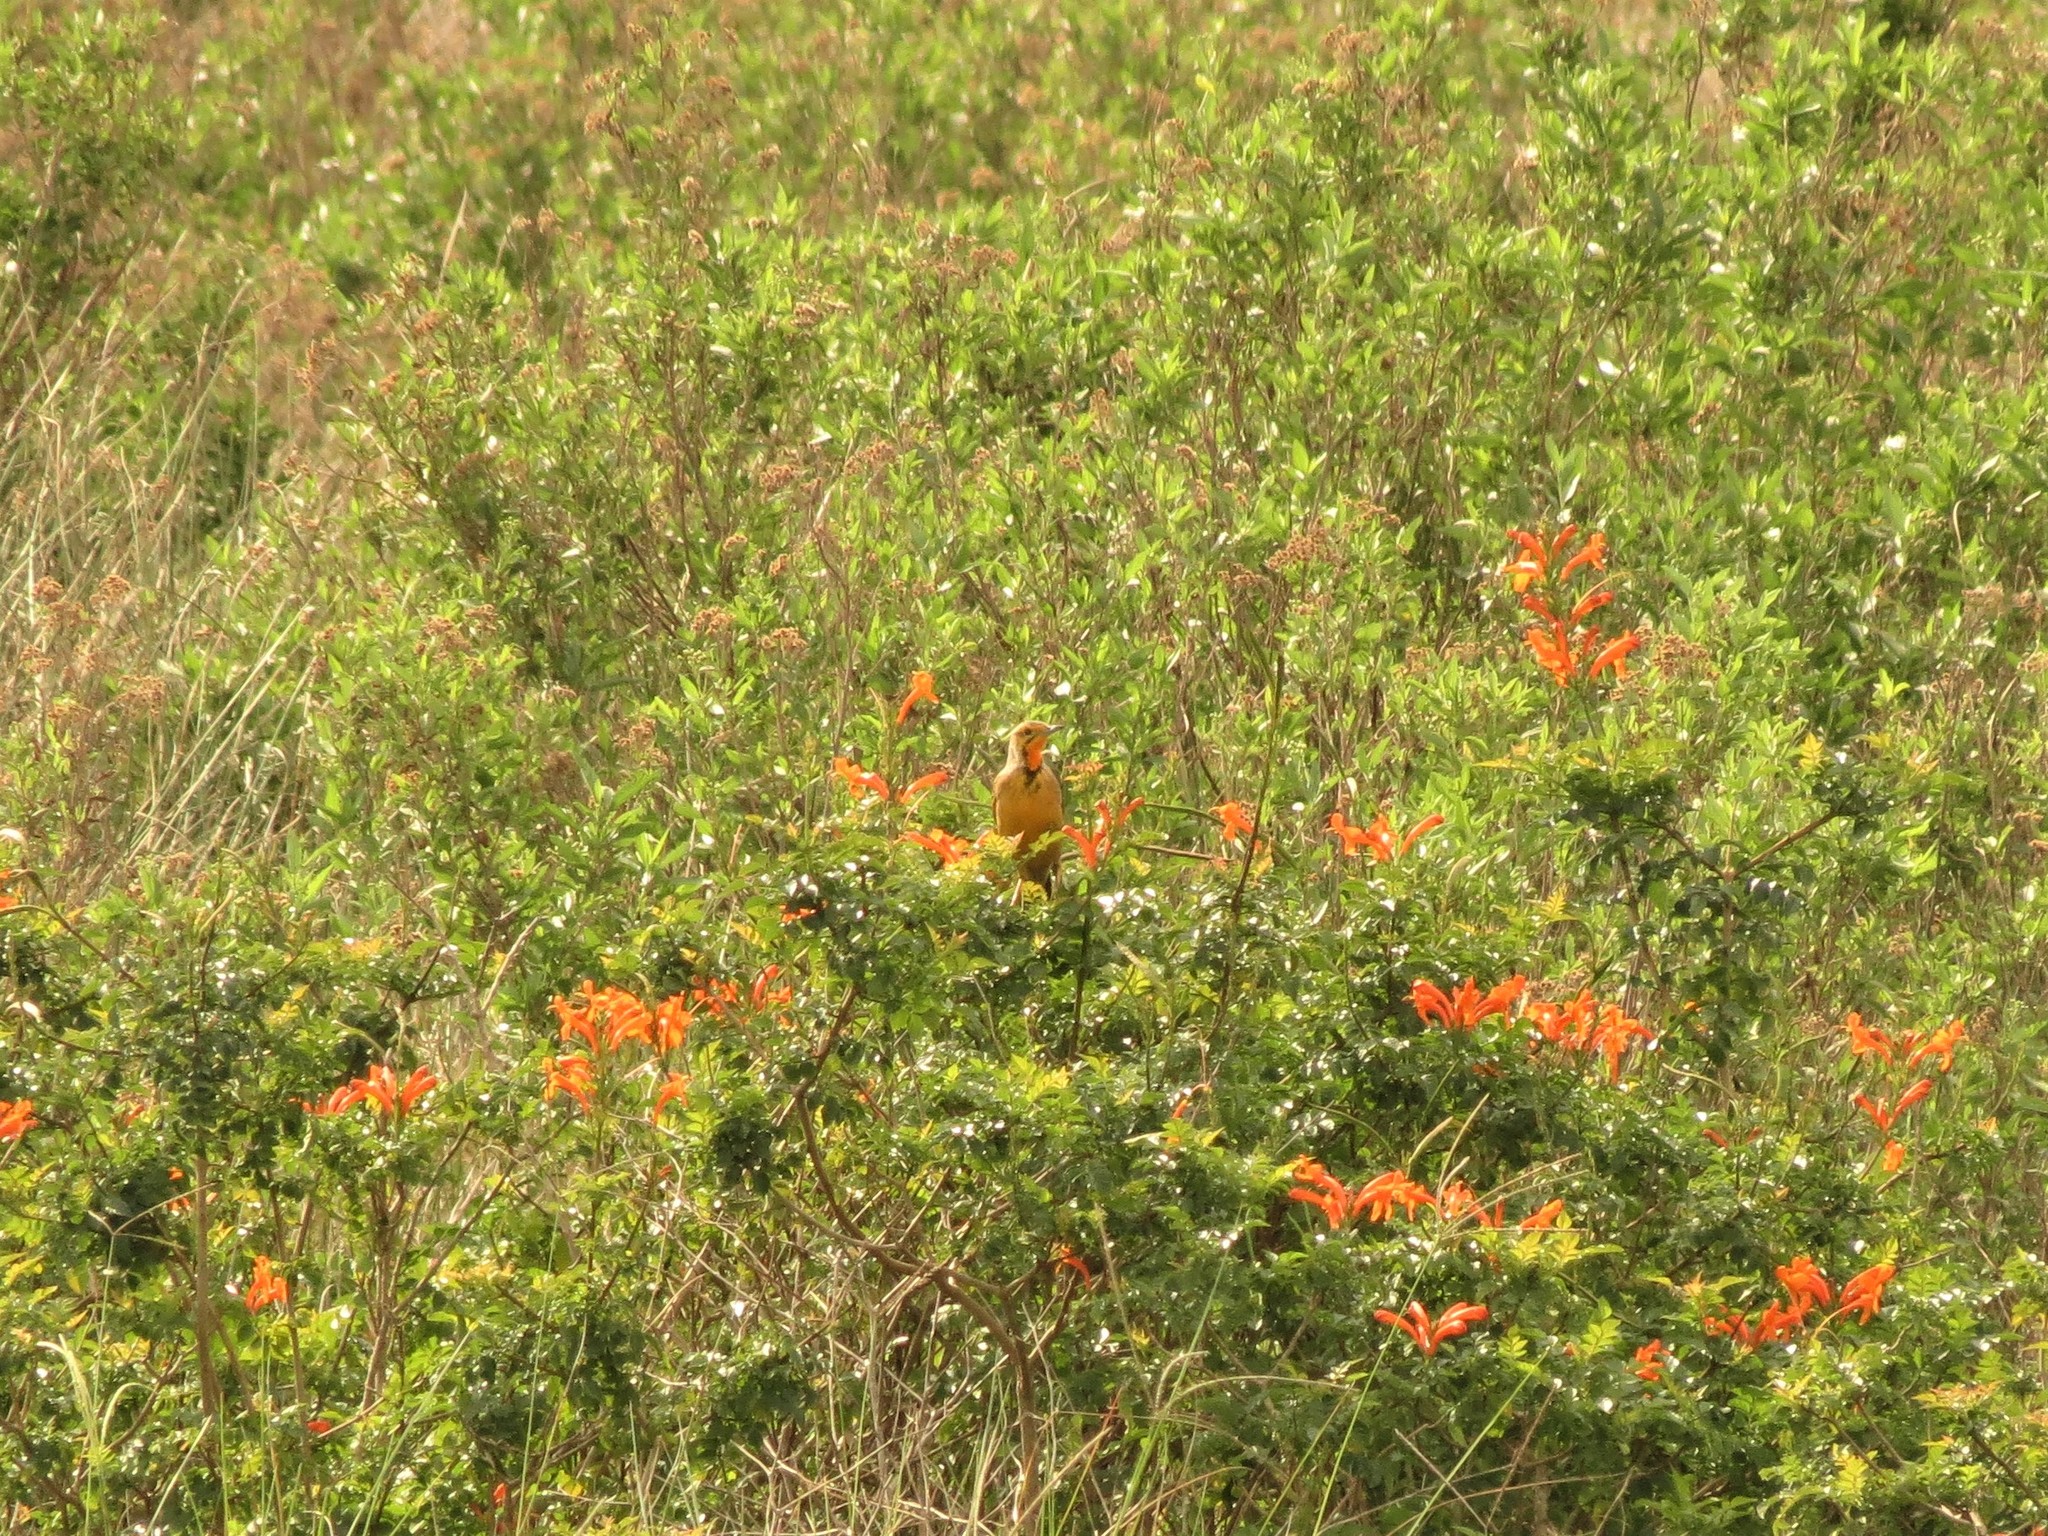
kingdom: Animalia
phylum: Chordata
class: Aves
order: Passeriformes
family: Motacillidae
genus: Macronyx
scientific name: Macronyx capensis
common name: Cape longclaw
